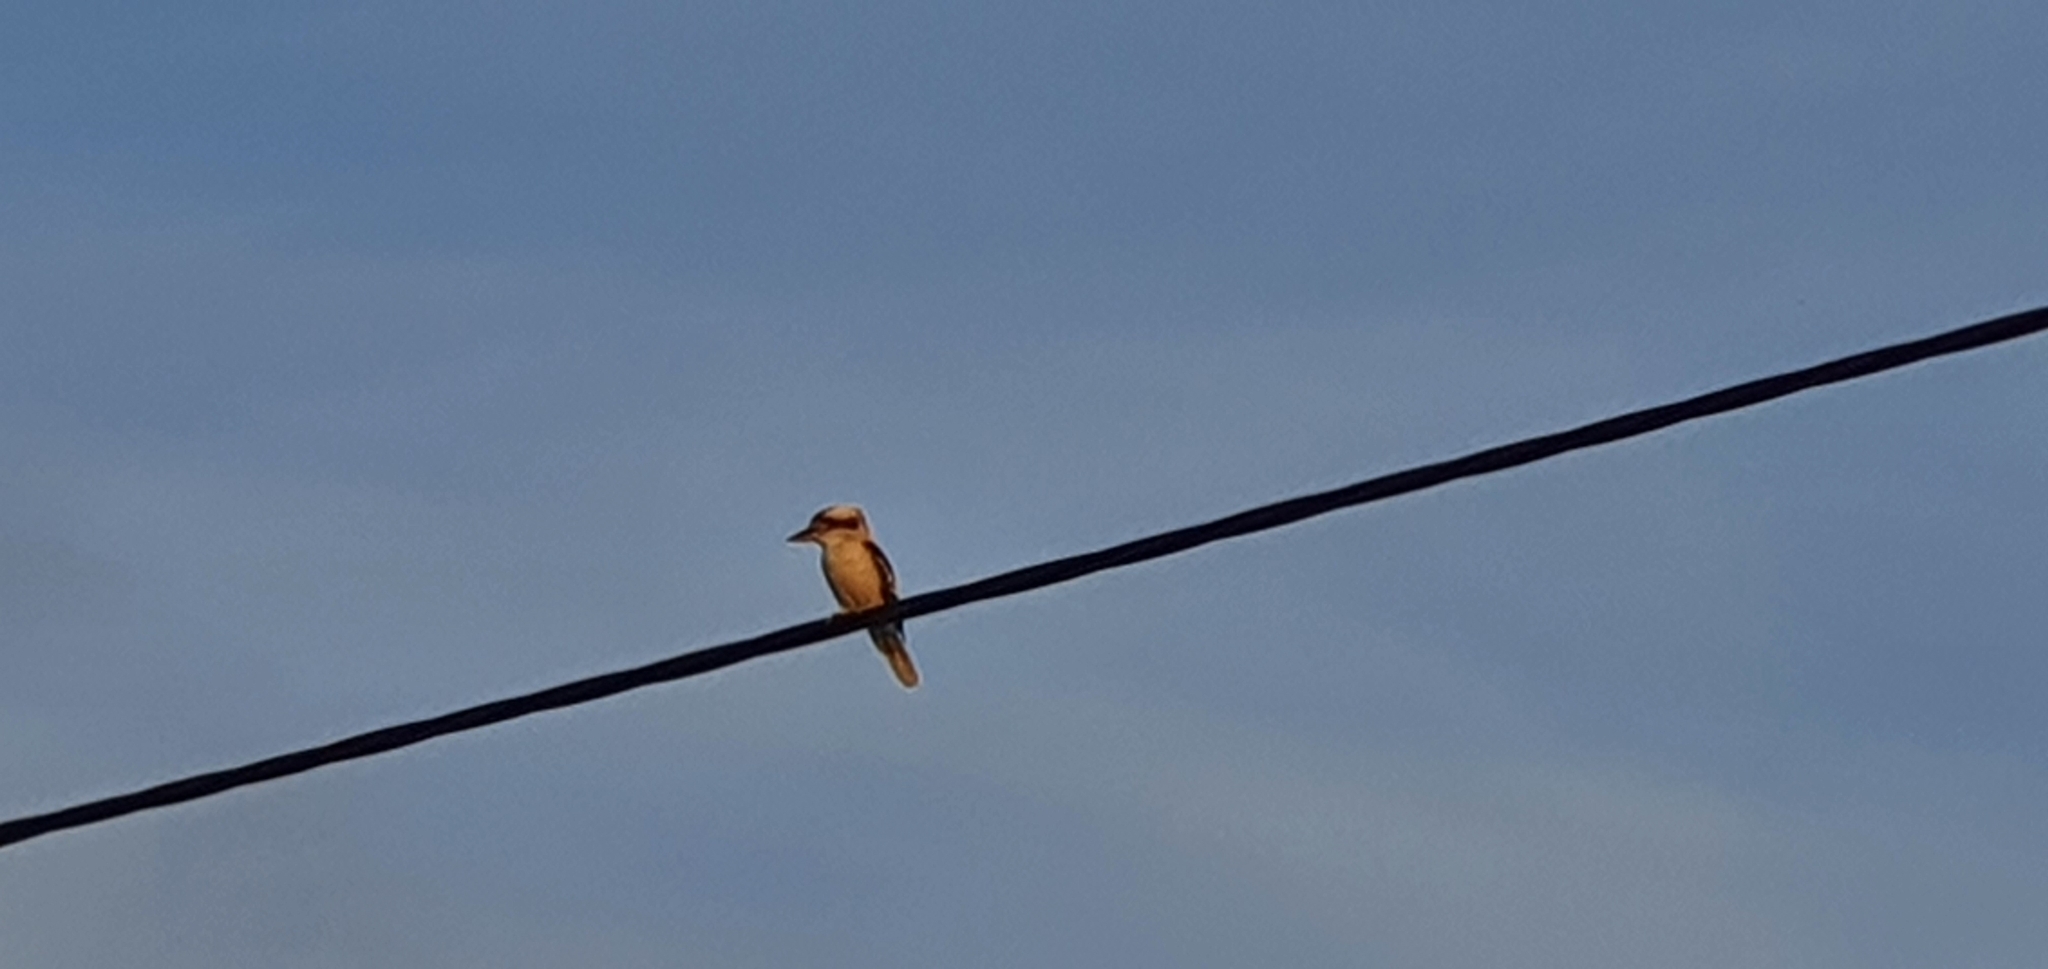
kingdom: Animalia
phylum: Chordata
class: Aves
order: Coraciiformes
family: Alcedinidae
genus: Dacelo
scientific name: Dacelo novaeguineae
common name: Laughing kookaburra
